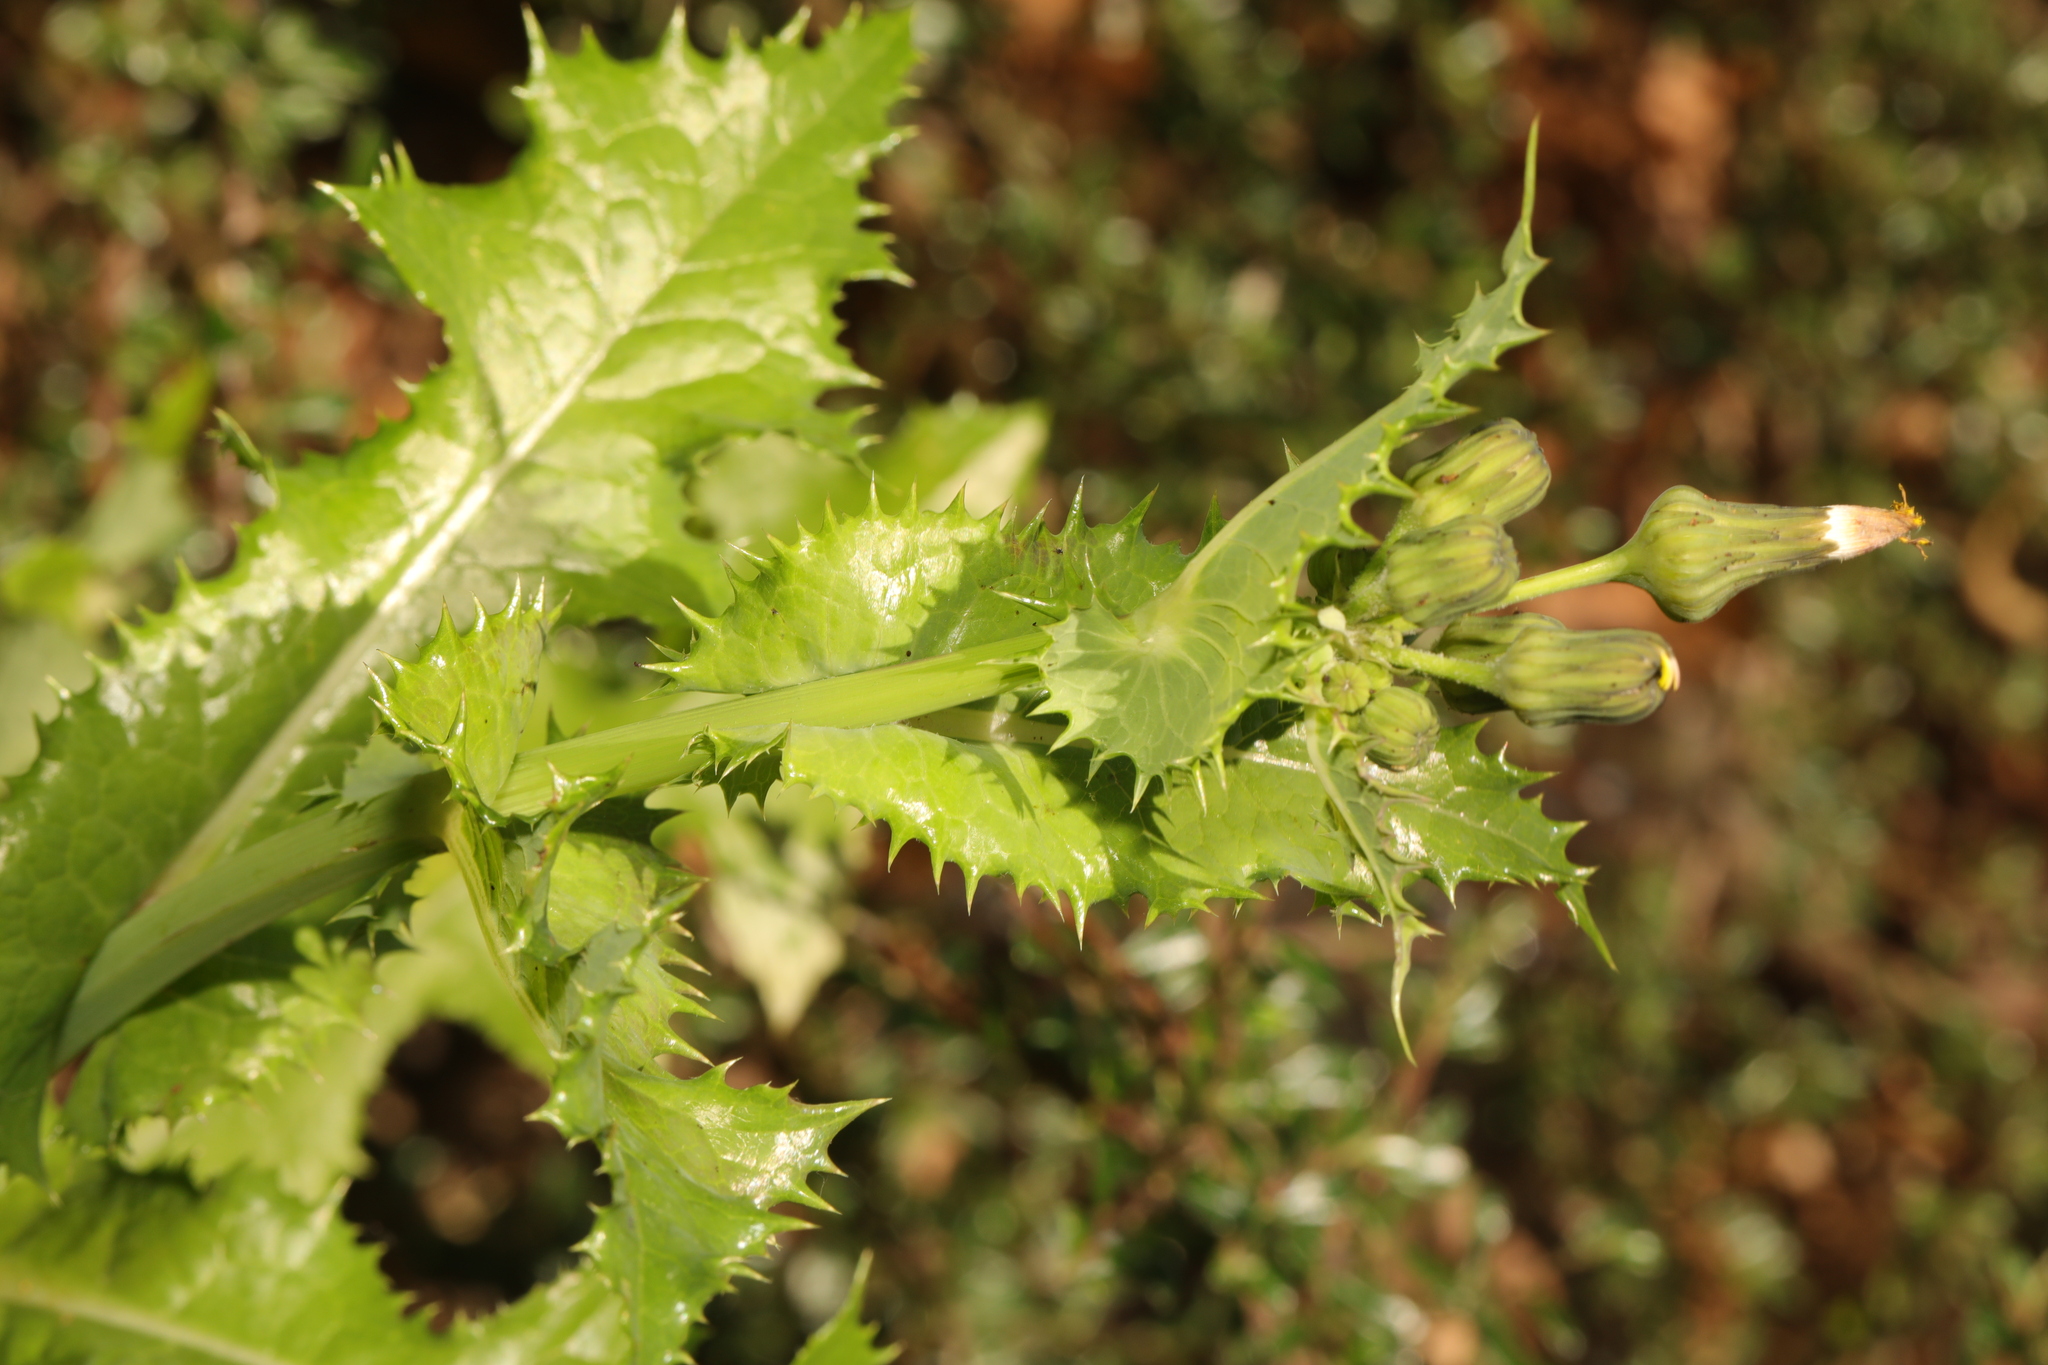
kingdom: Plantae
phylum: Tracheophyta
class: Magnoliopsida
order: Asterales
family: Asteraceae
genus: Sonchus
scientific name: Sonchus asper
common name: Prickly sow-thistle
